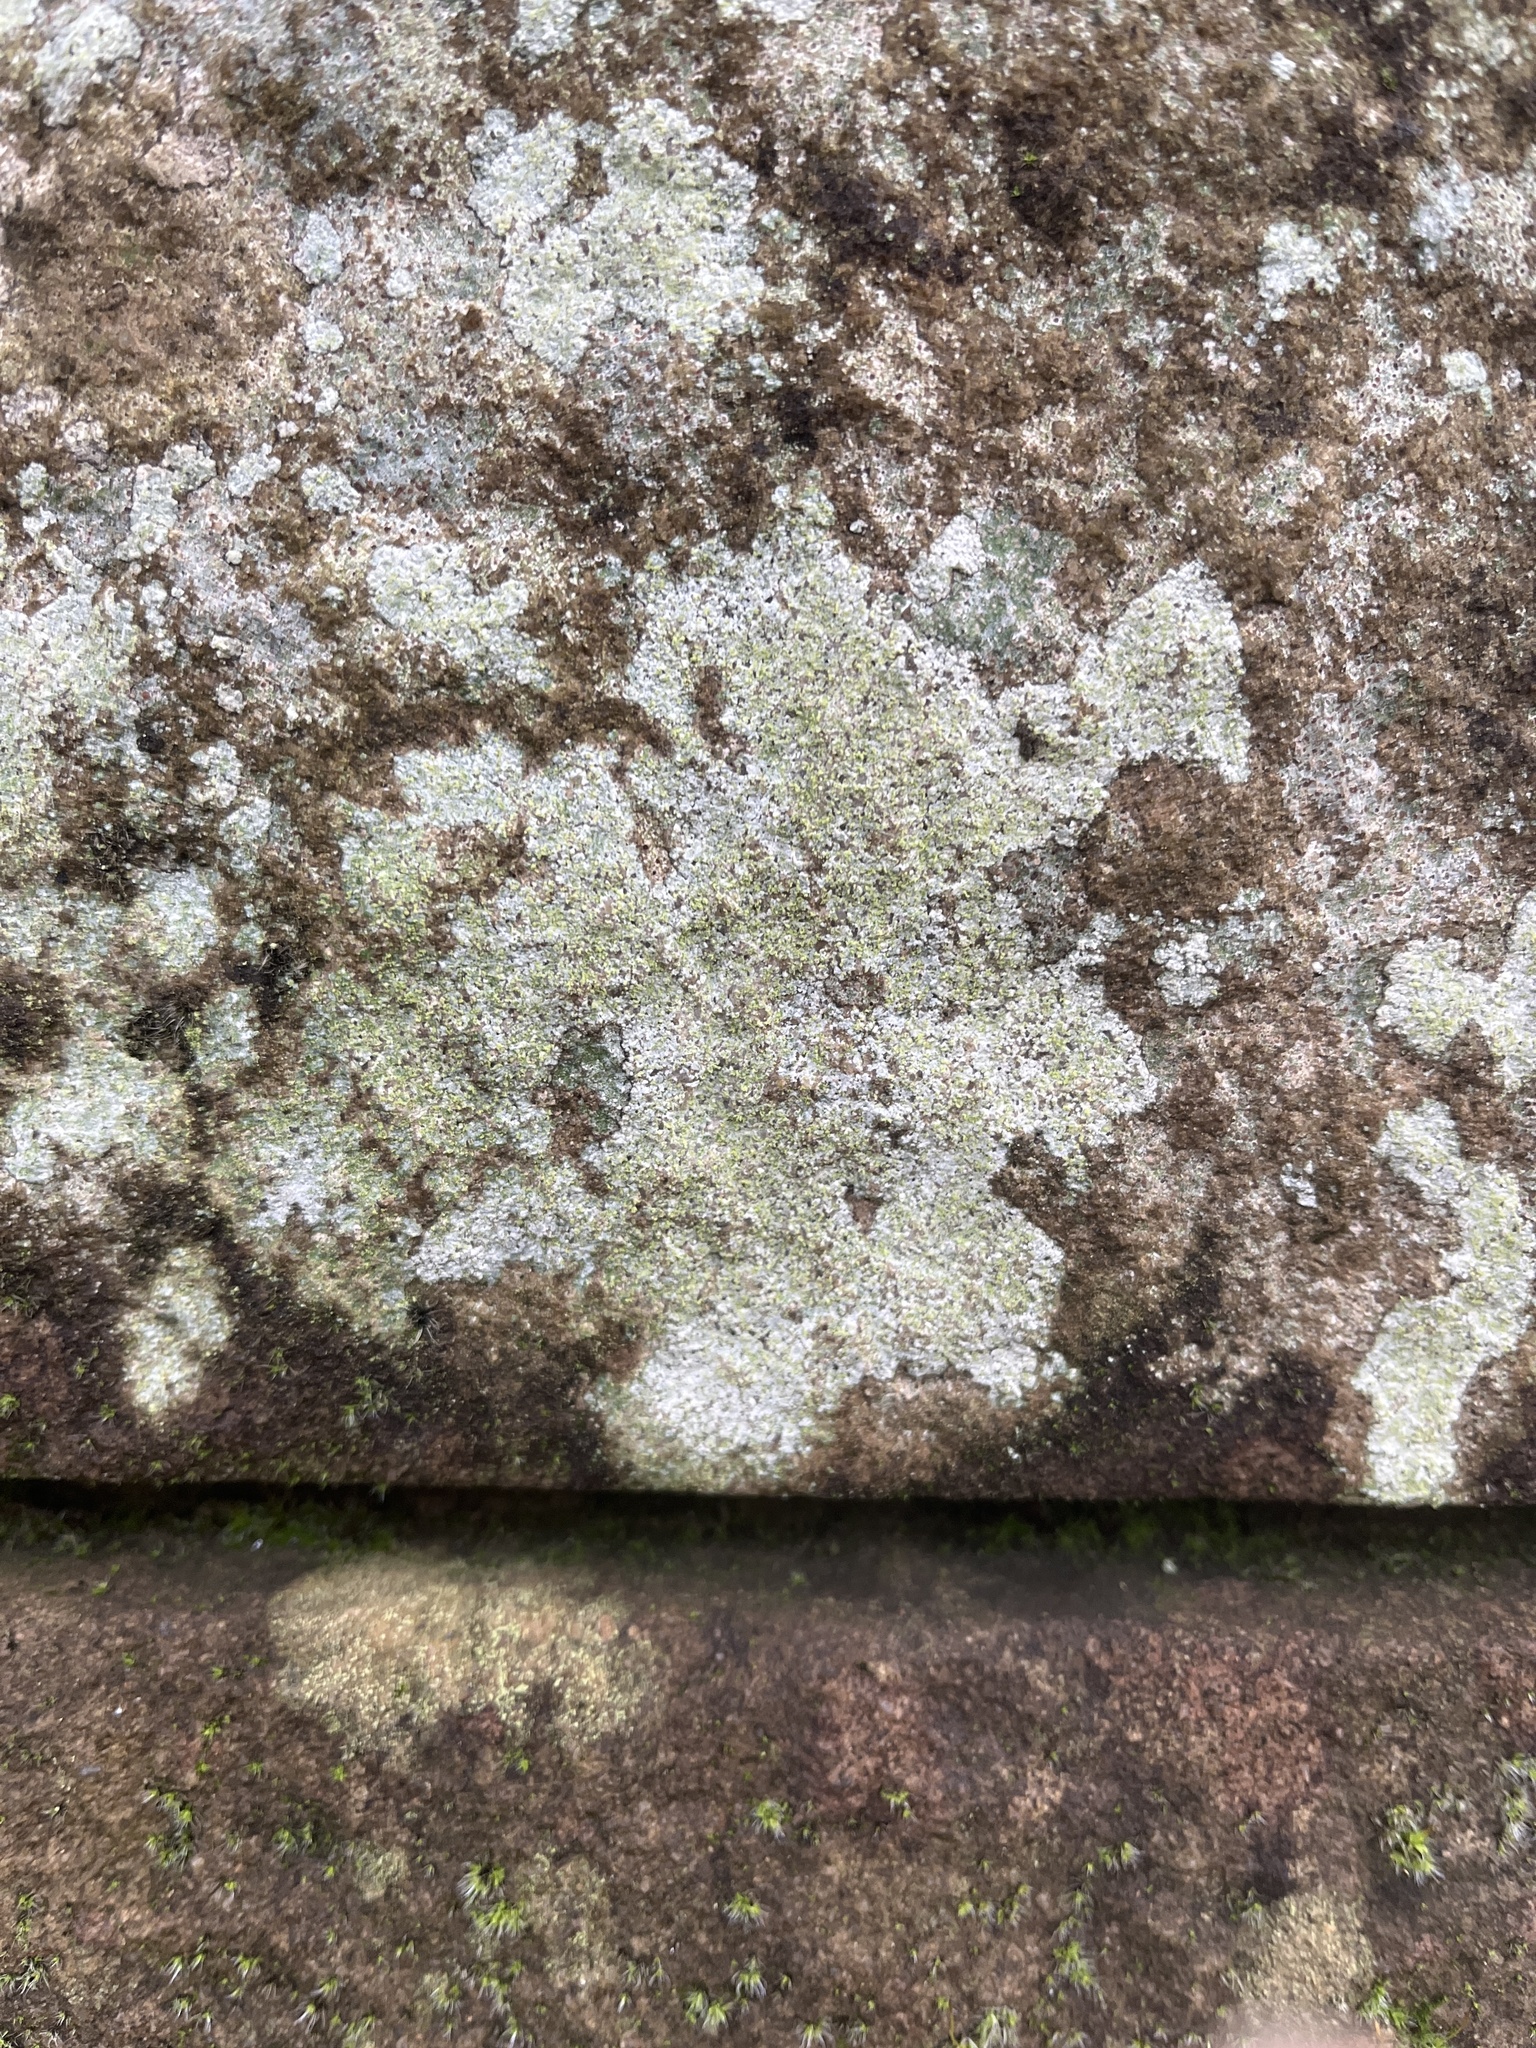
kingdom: Fungi
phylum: Ascomycota
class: Lecanoromycetes
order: Baeomycetales
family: Trapeliaceae
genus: Kleopowiella
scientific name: Kleopowiella placodioides
